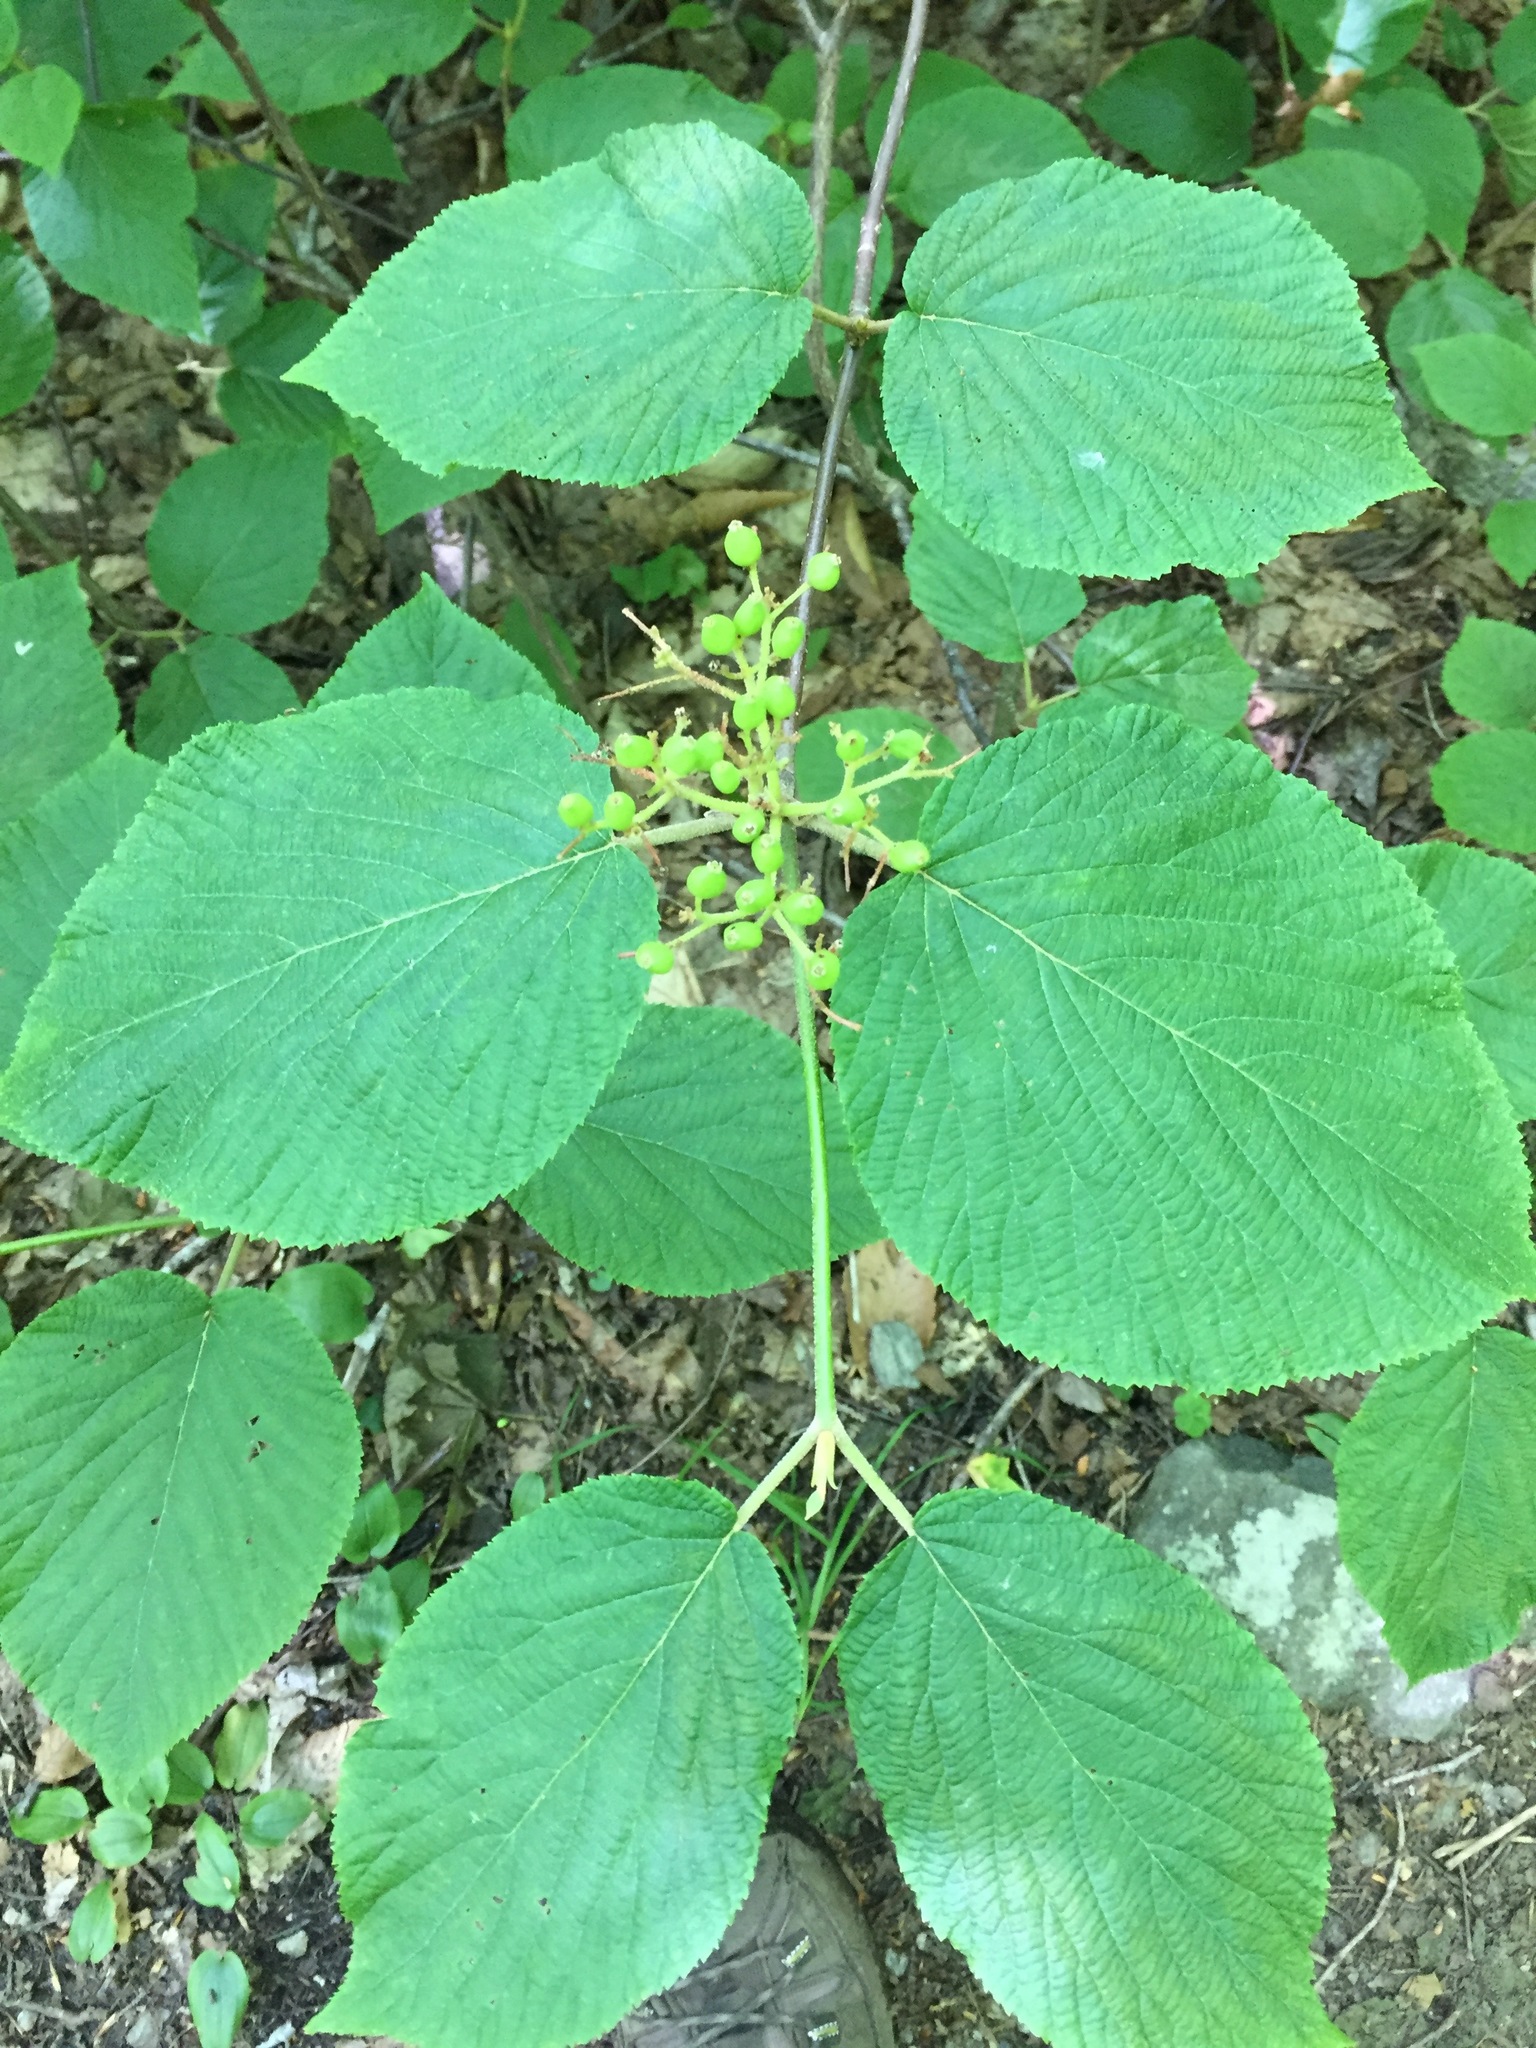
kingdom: Plantae
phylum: Tracheophyta
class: Magnoliopsida
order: Dipsacales
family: Viburnaceae
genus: Viburnum
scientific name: Viburnum lantanoides
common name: Hobblebush
